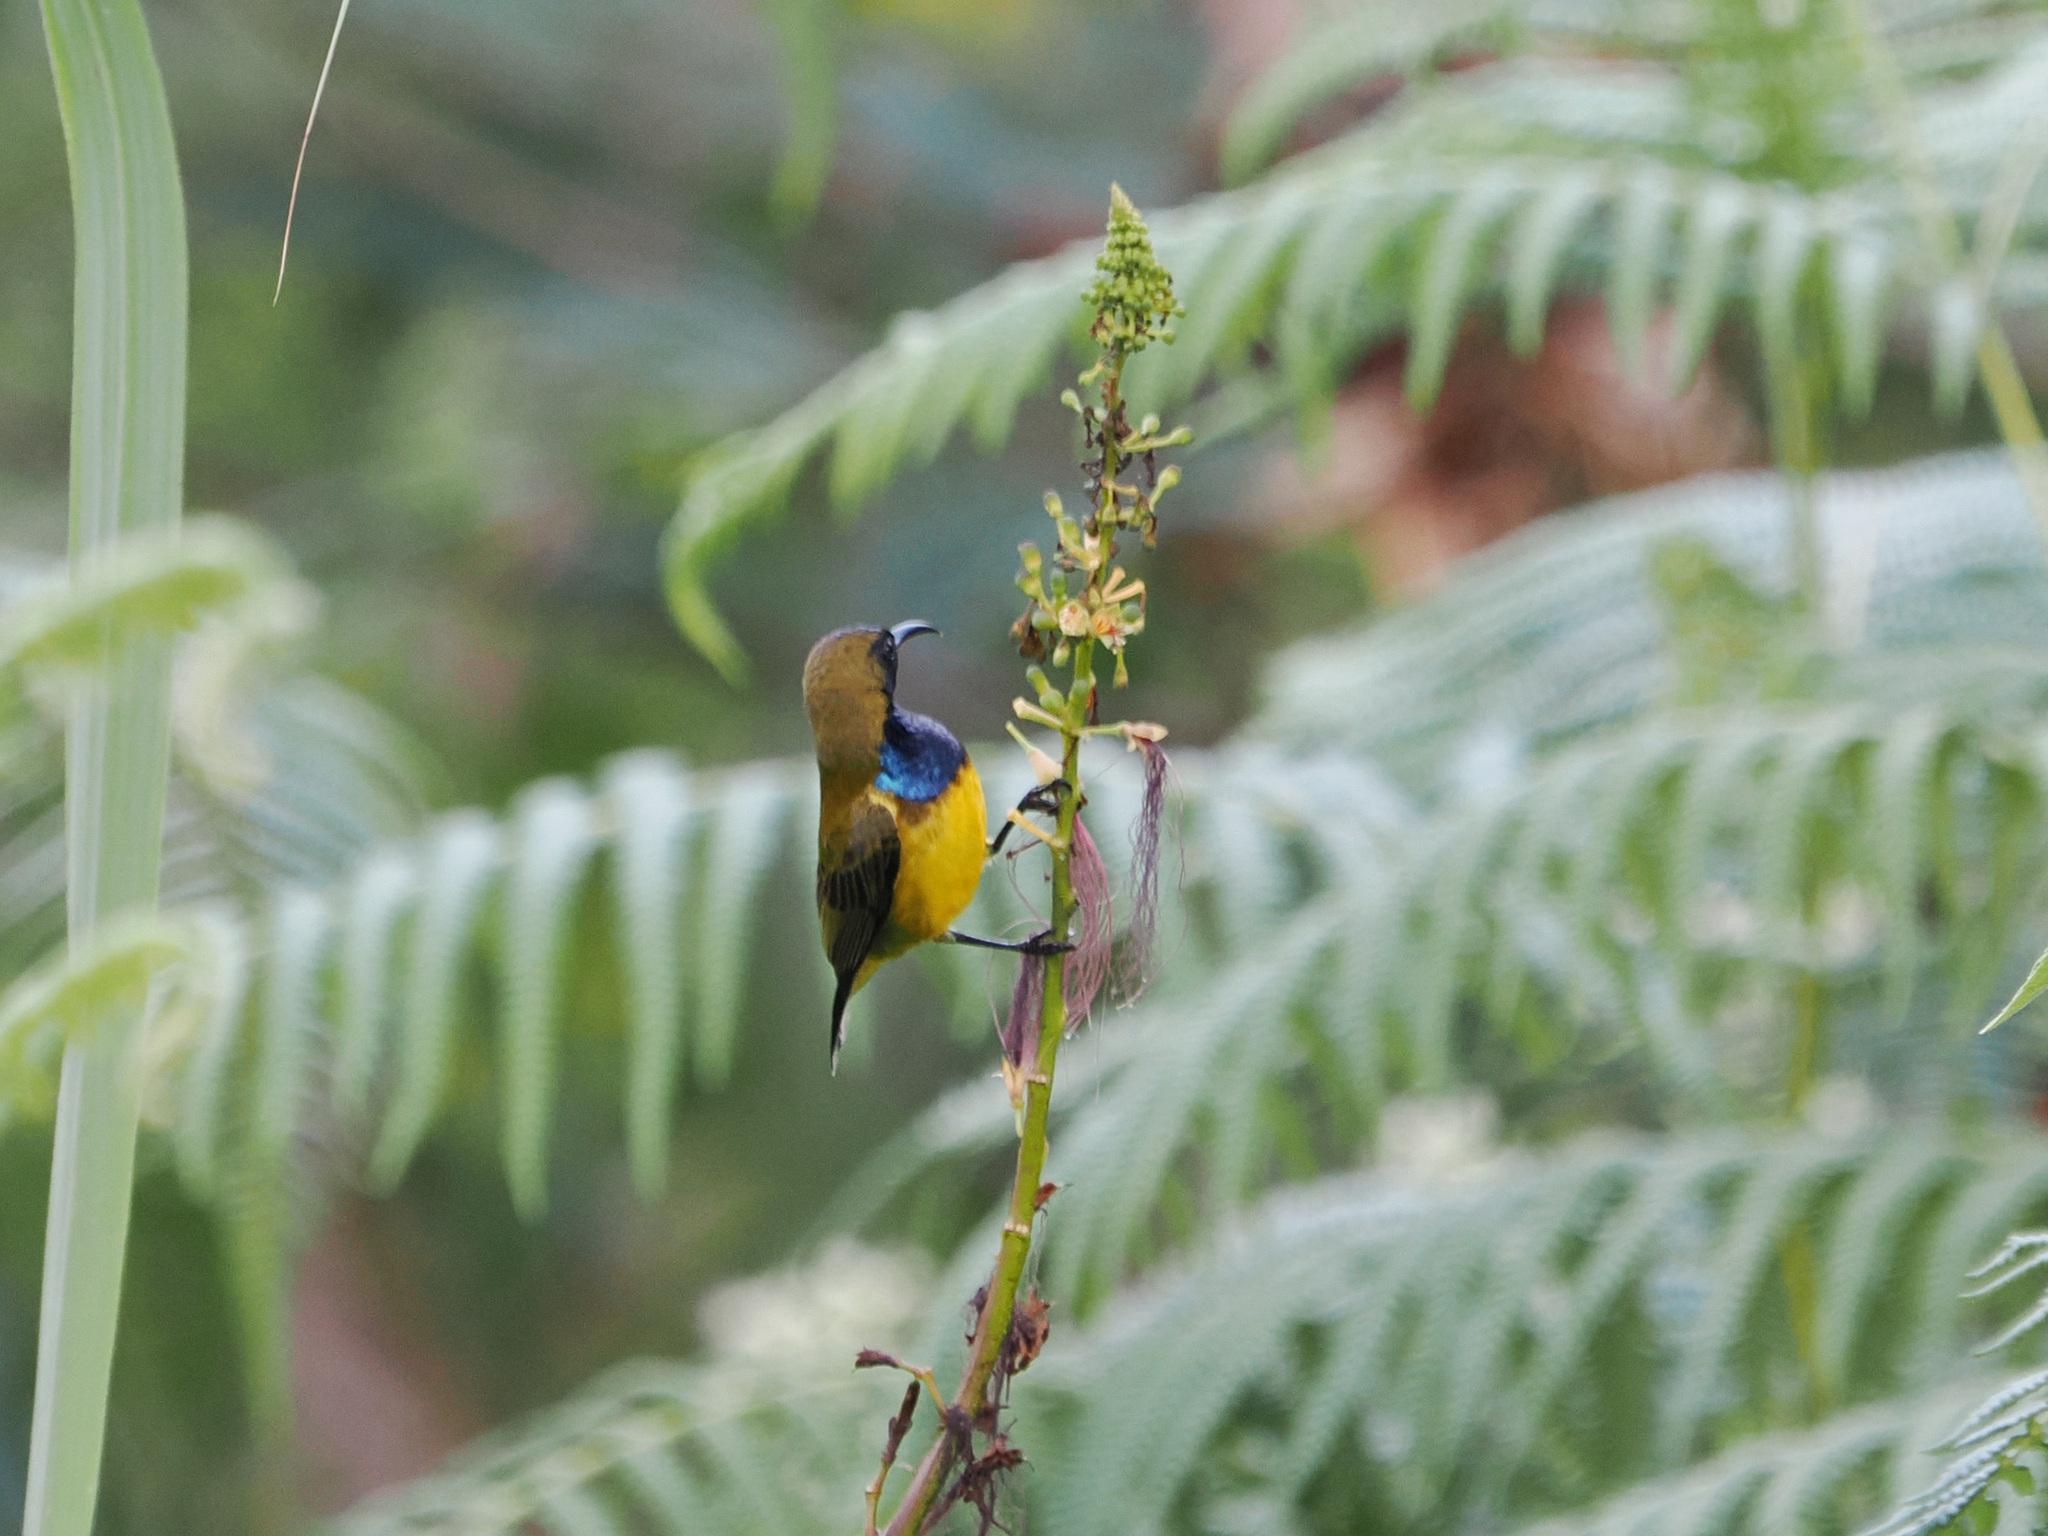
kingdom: Animalia
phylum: Chordata
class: Aves
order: Passeriformes
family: Nectariniidae
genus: Cinnyris
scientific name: Cinnyris
